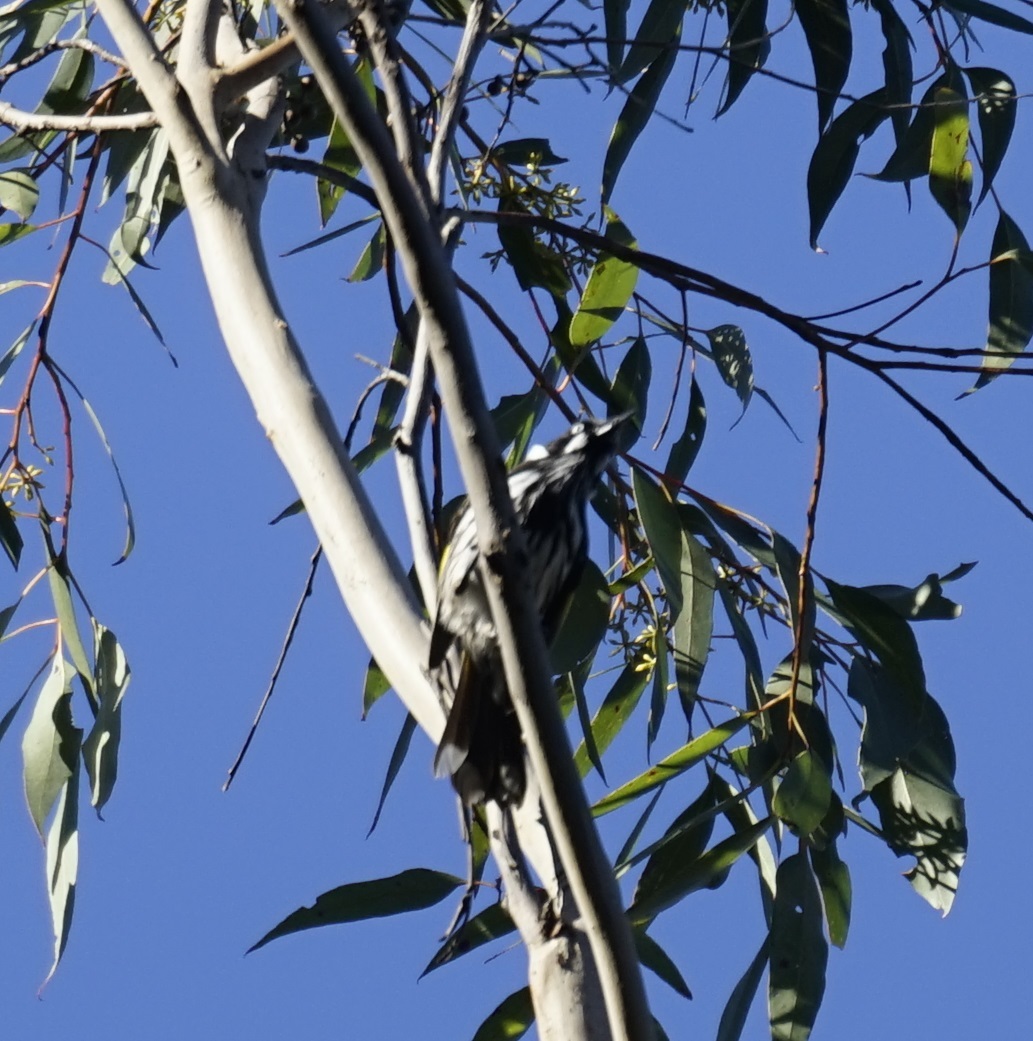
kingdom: Animalia
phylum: Chordata
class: Aves
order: Passeriformes
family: Meliphagidae
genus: Phylidonyris
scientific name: Phylidonyris novaehollandiae
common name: New holland honeyeater
